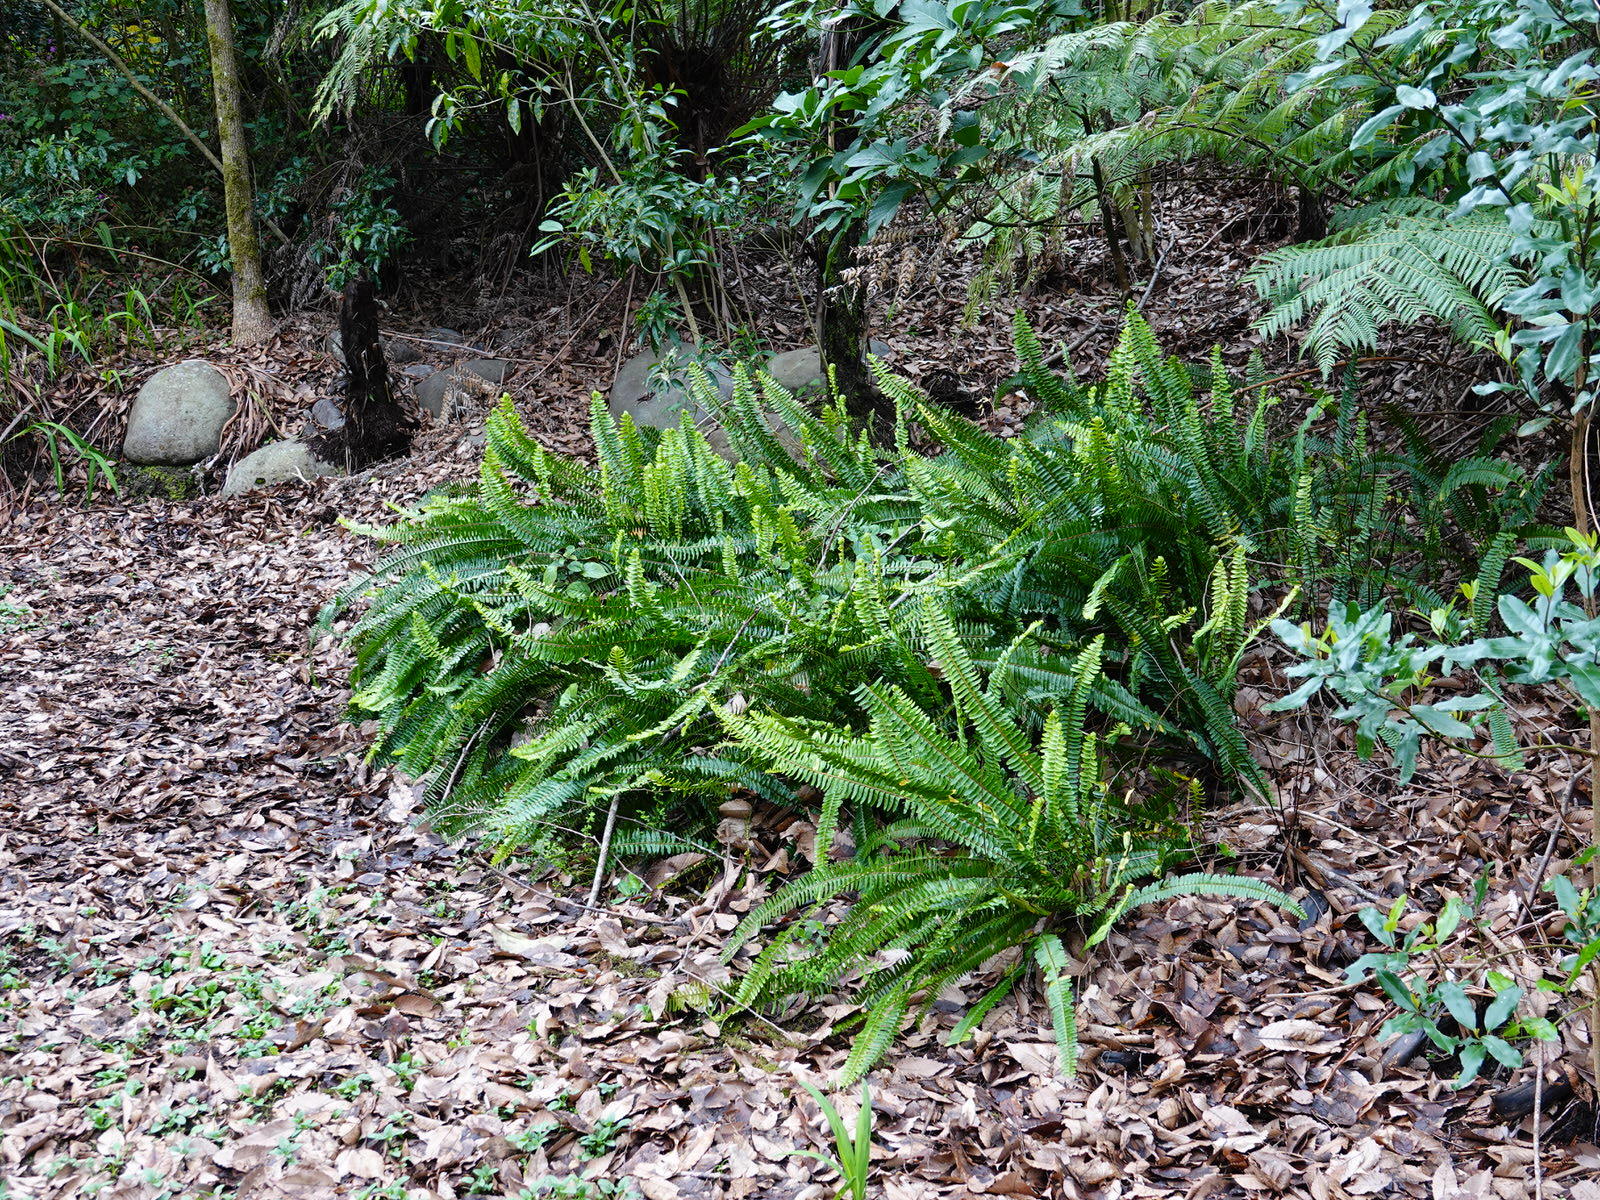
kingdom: Plantae
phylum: Tracheophyta
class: Polypodiopsida
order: Polypodiales
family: Nephrolepidaceae
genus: Nephrolepis
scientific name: Nephrolepis cordifolia
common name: Narrow swordfern
